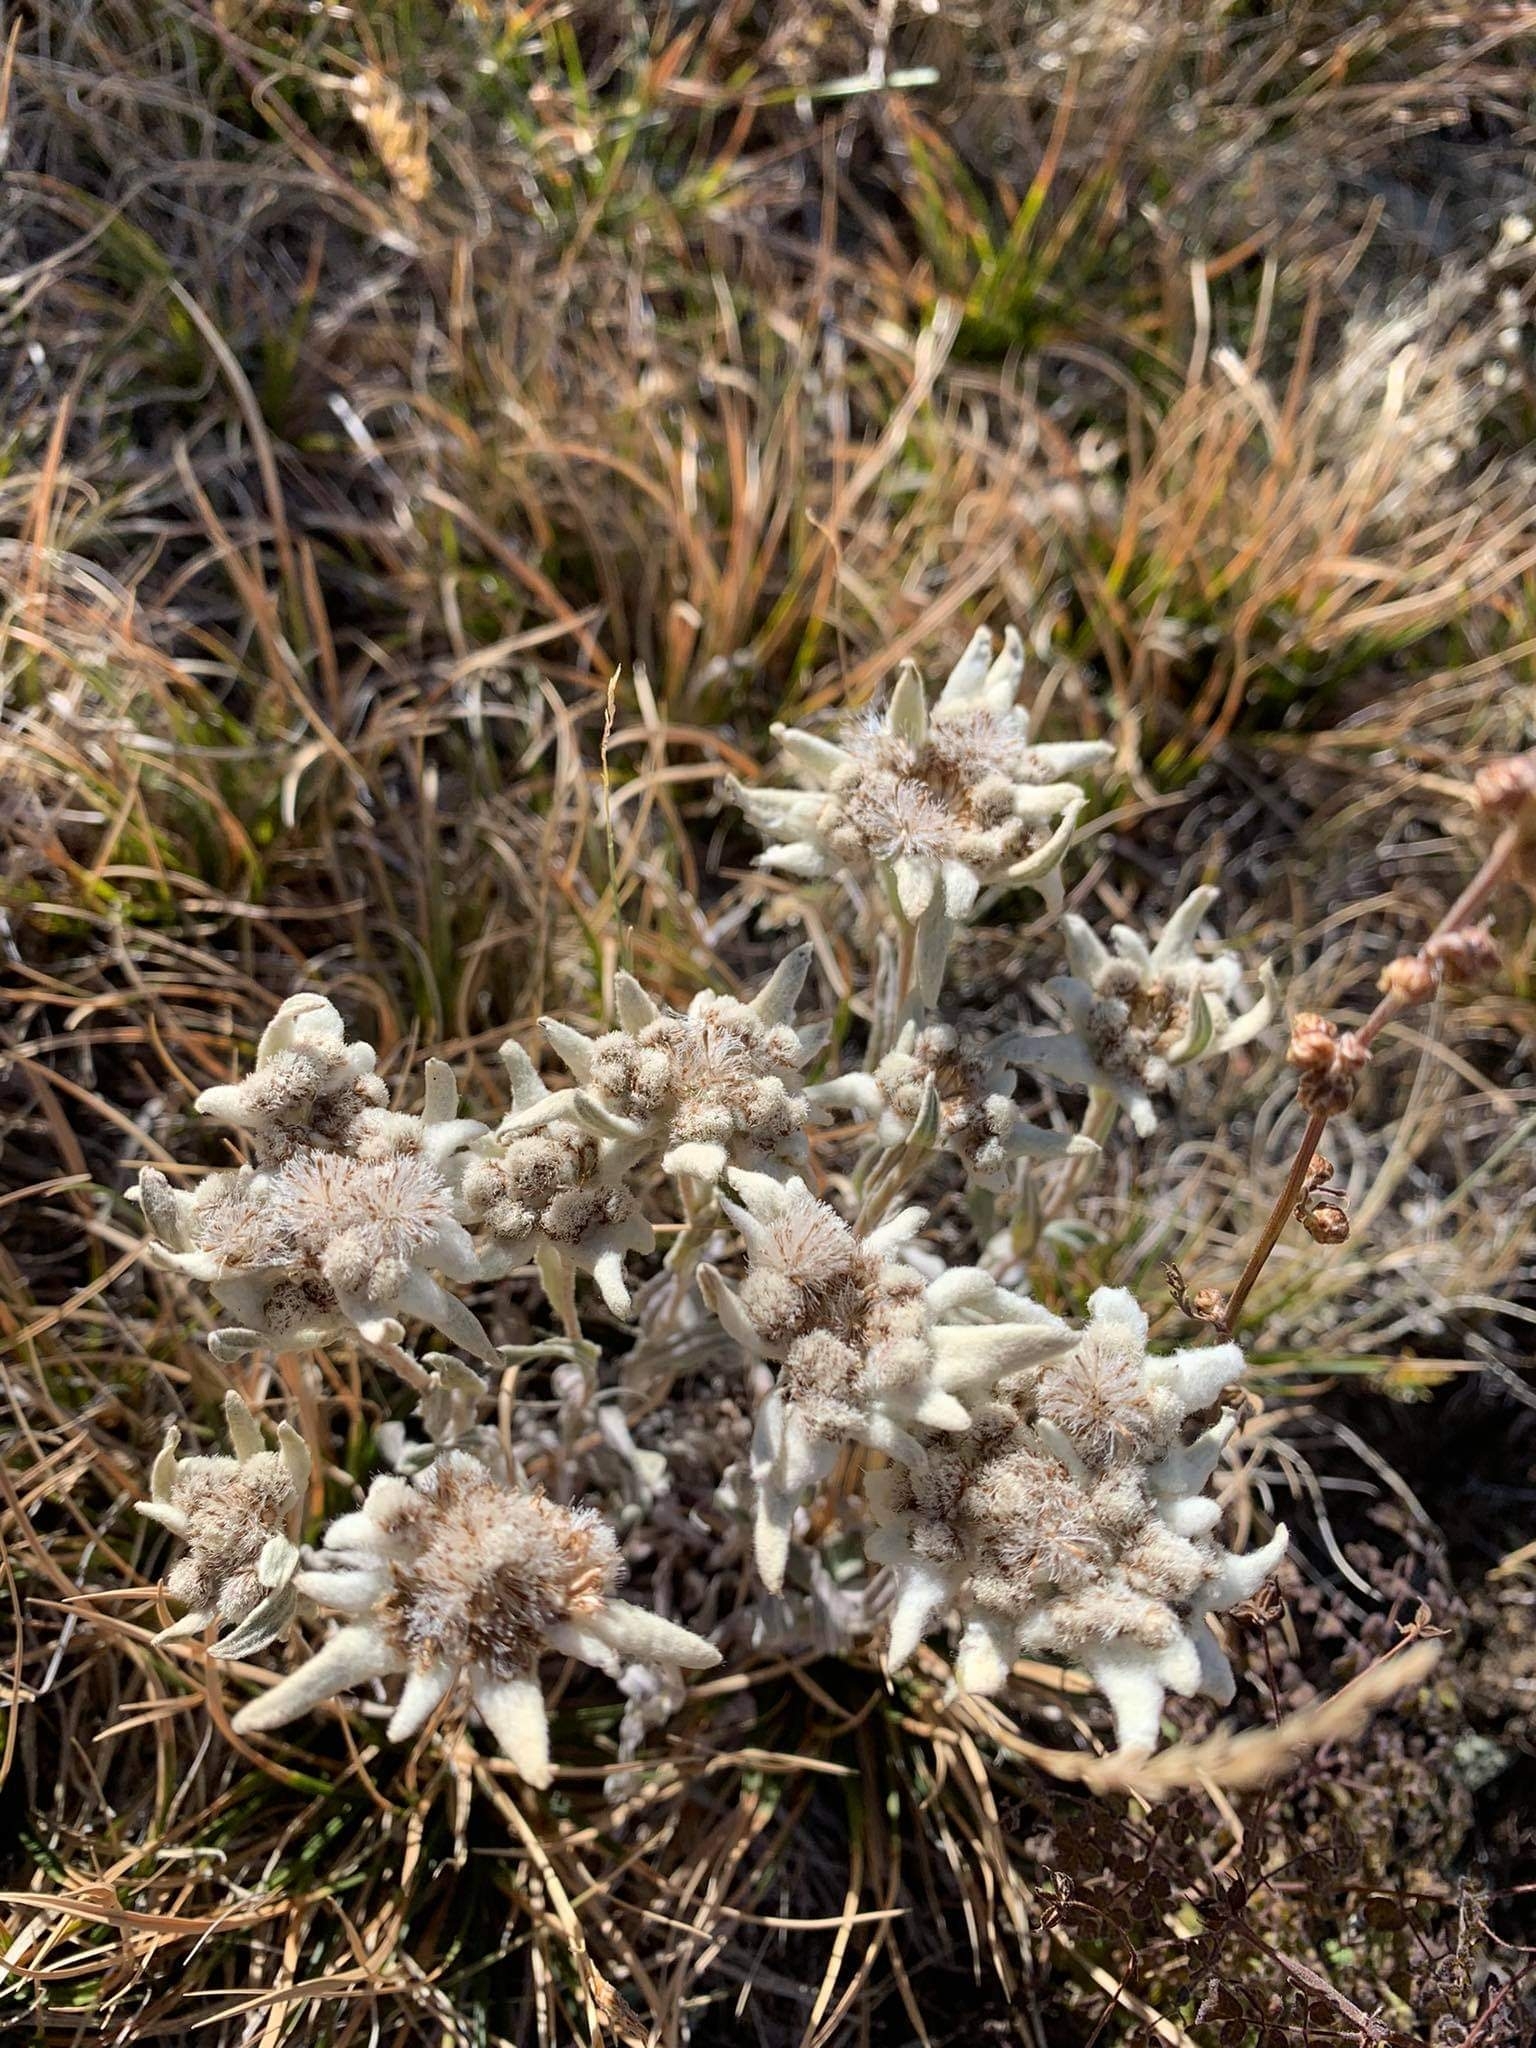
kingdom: Plantae
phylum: Tracheophyta
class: Magnoliopsida
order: Asterales
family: Asteraceae
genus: Leontopodium
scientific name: Leontopodium leontopodioides
